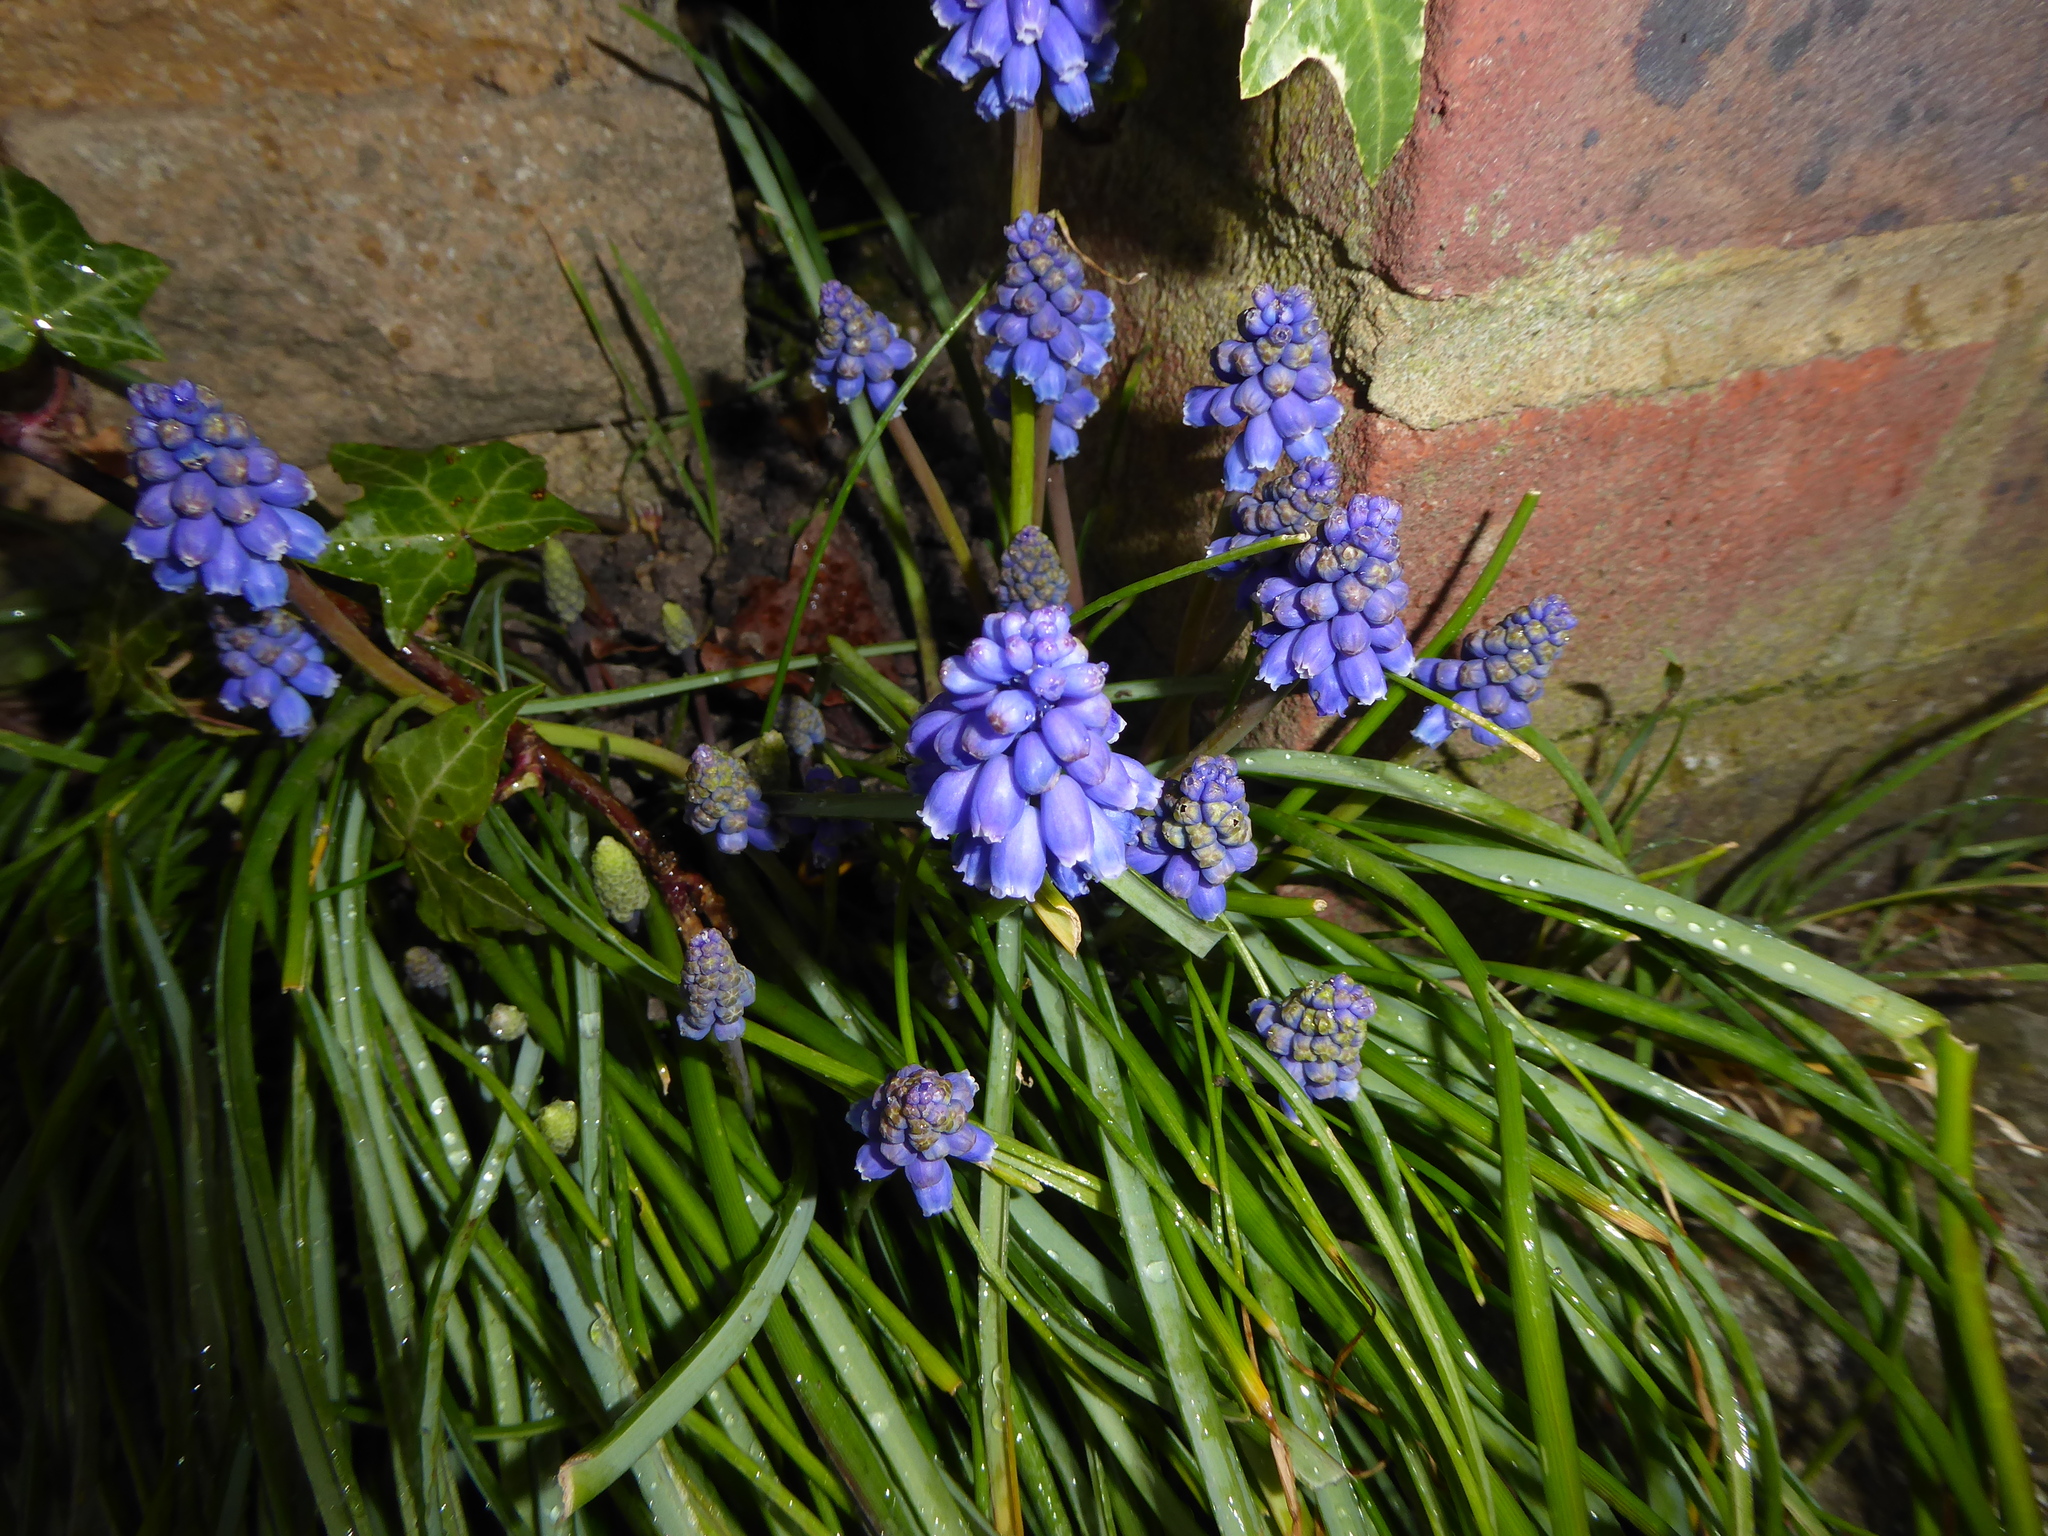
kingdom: Plantae
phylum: Tracheophyta
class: Liliopsida
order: Asparagales
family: Asparagaceae
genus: Muscari
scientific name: Muscari armeniacum
